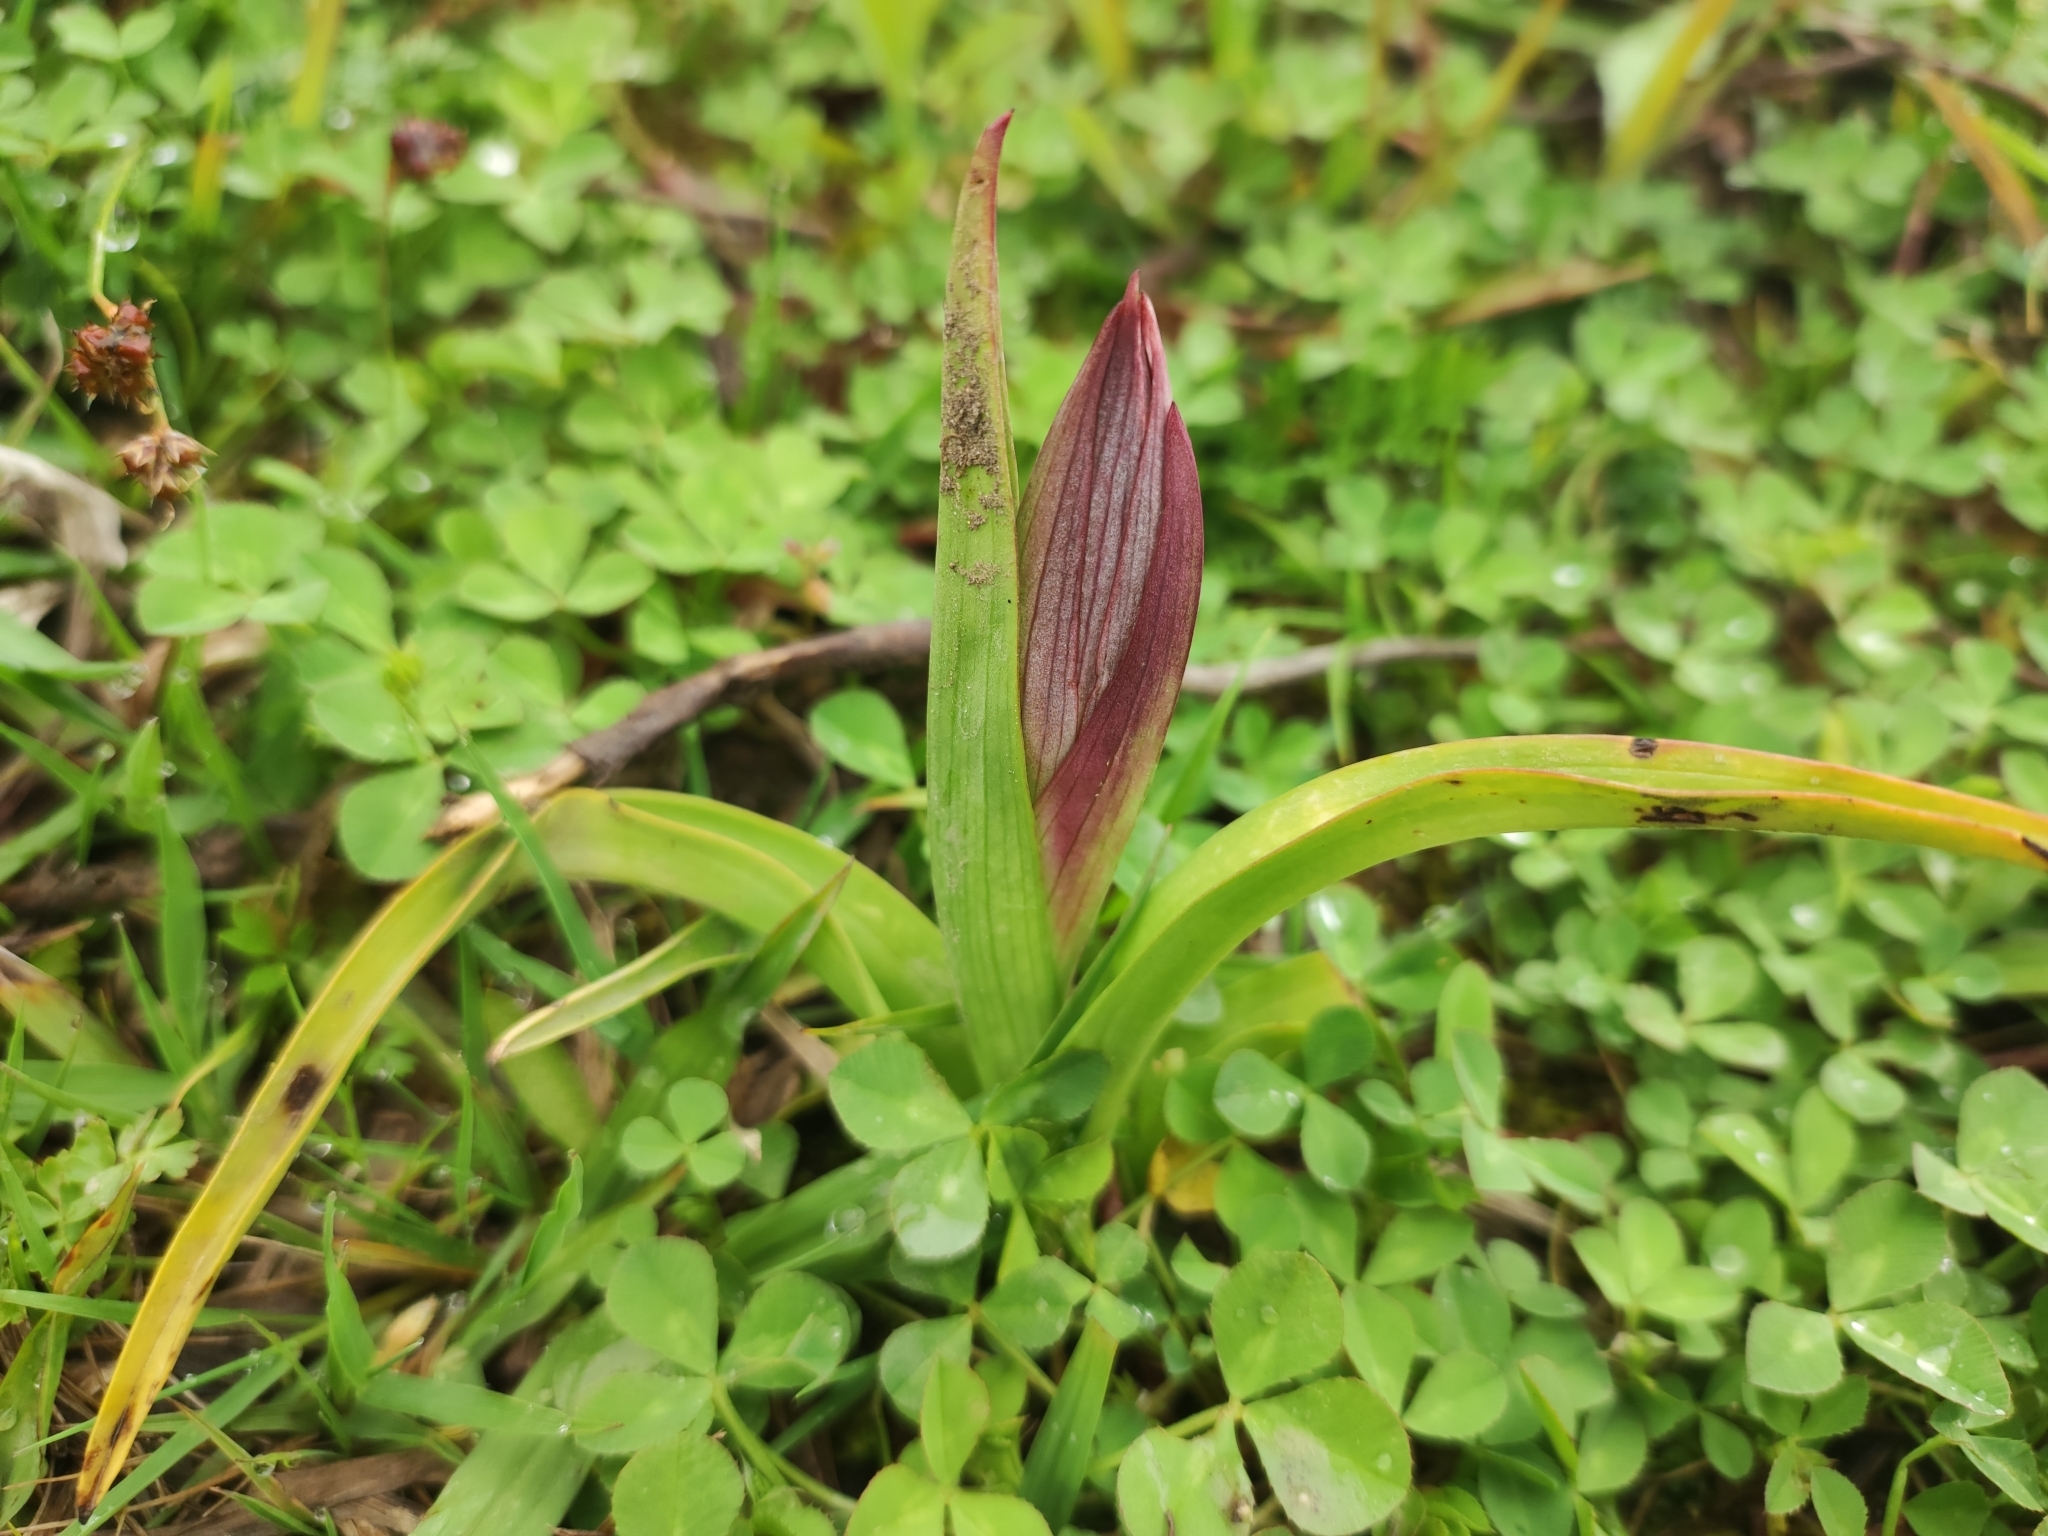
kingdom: Plantae
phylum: Tracheophyta
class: Liliopsida
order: Asparagales
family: Orchidaceae
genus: Serapias
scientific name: Serapias orientalis
